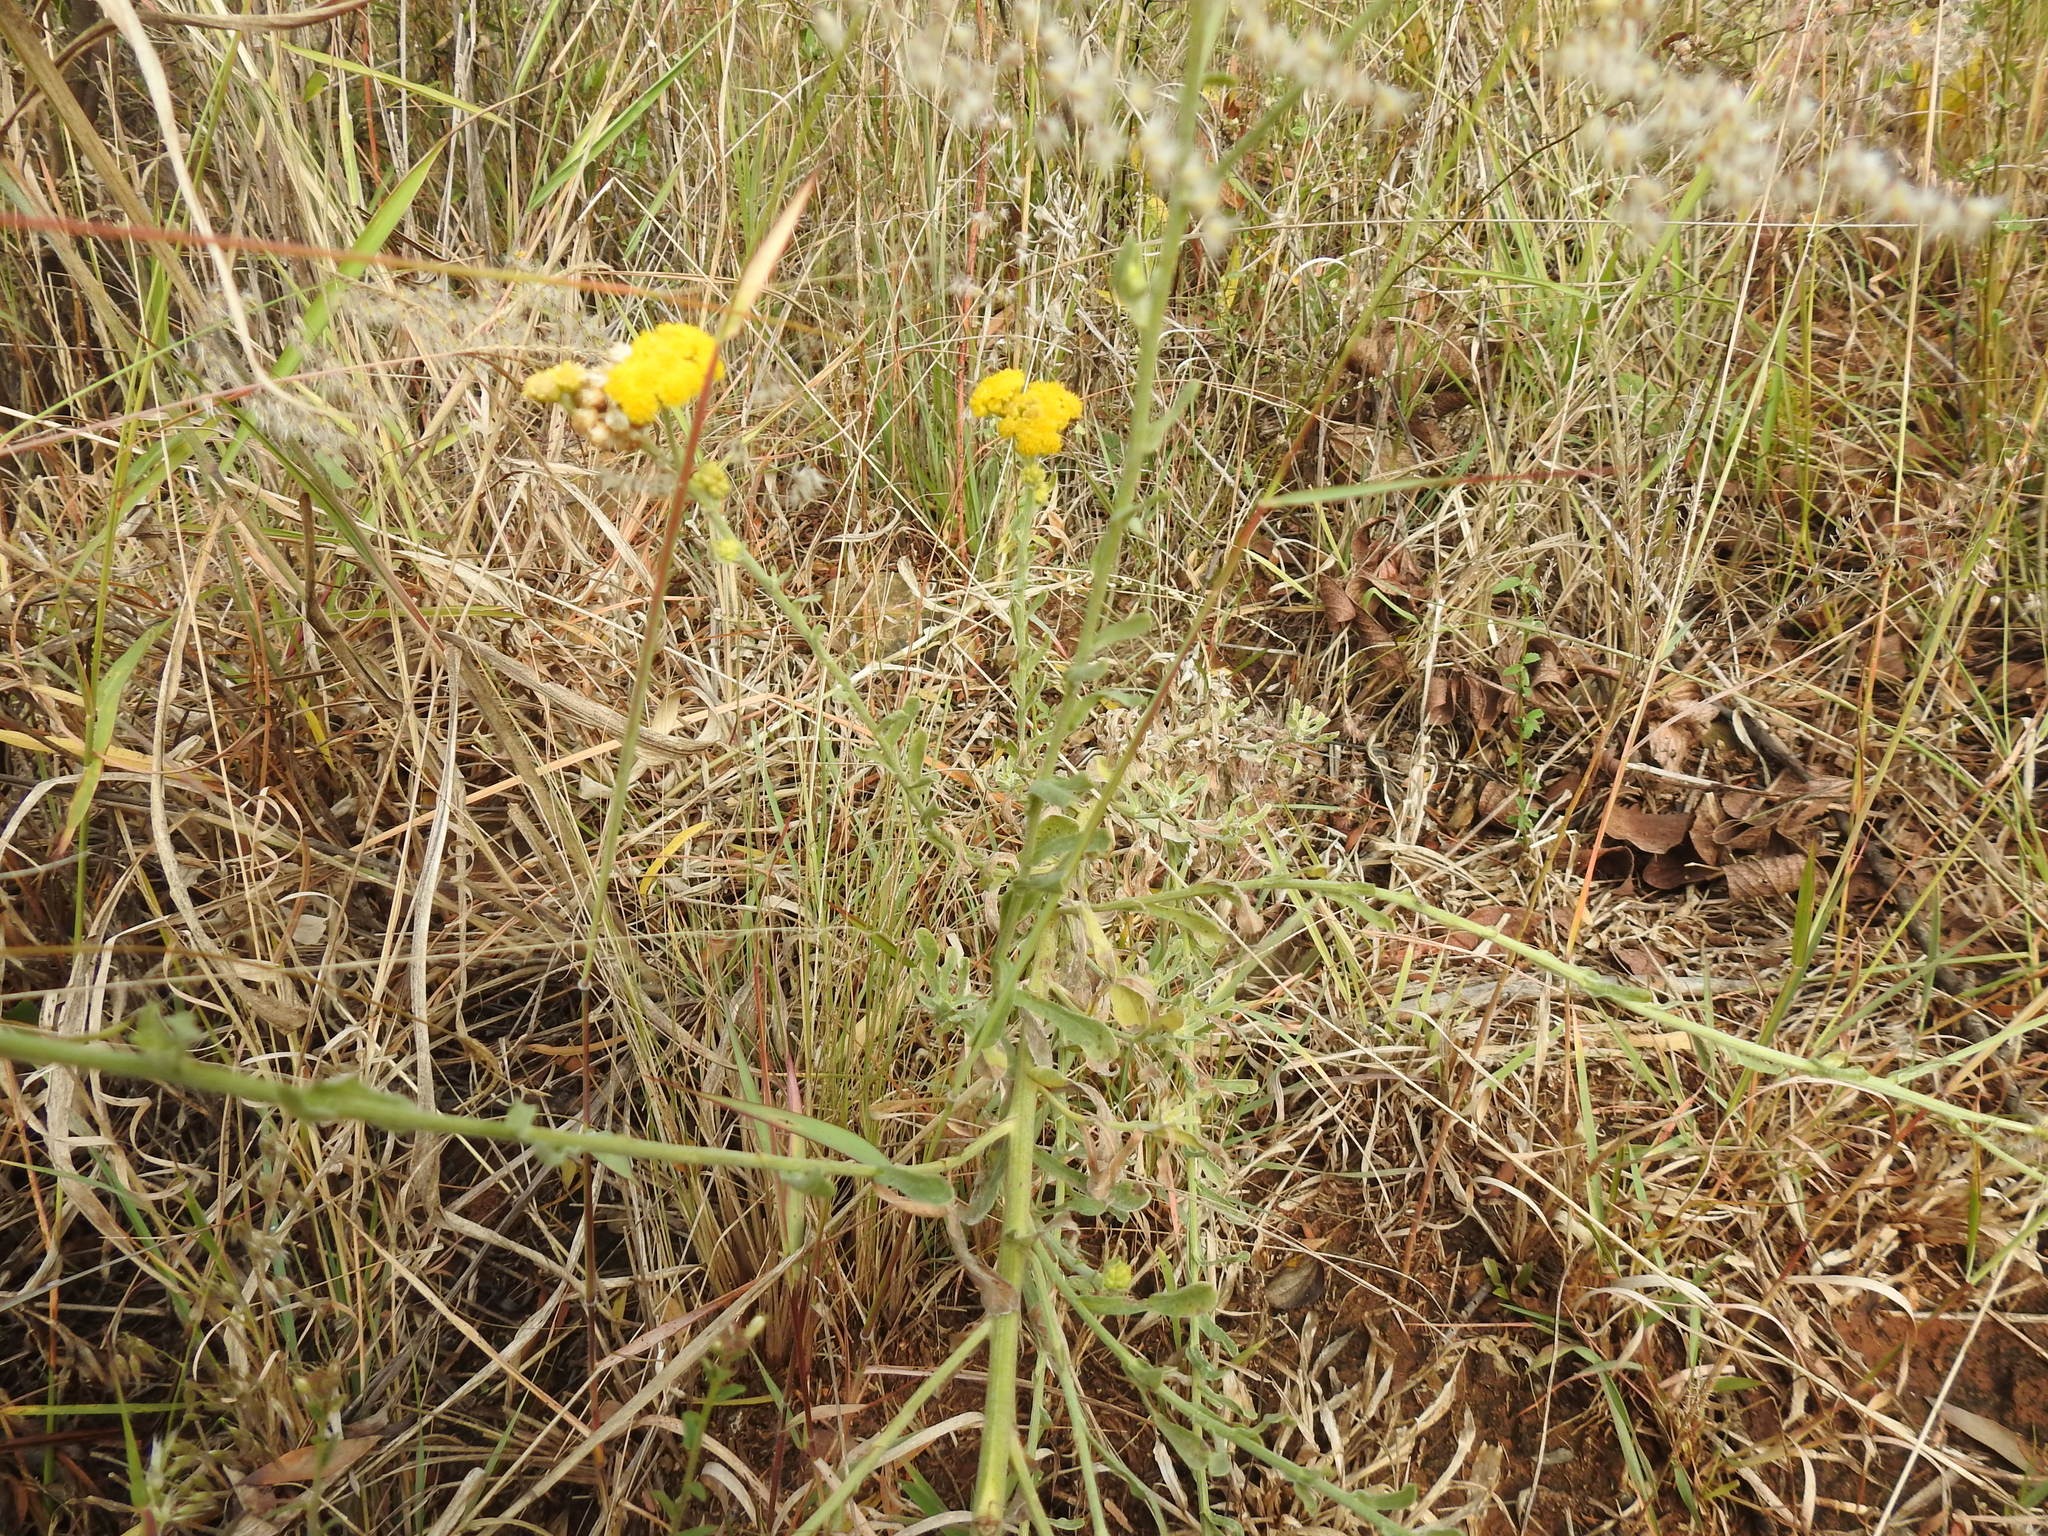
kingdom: Plantae
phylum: Tracheophyta
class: Magnoliopsida
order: Asterales
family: Asteraceae
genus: Nidorella
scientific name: Nidorella hottentotica
